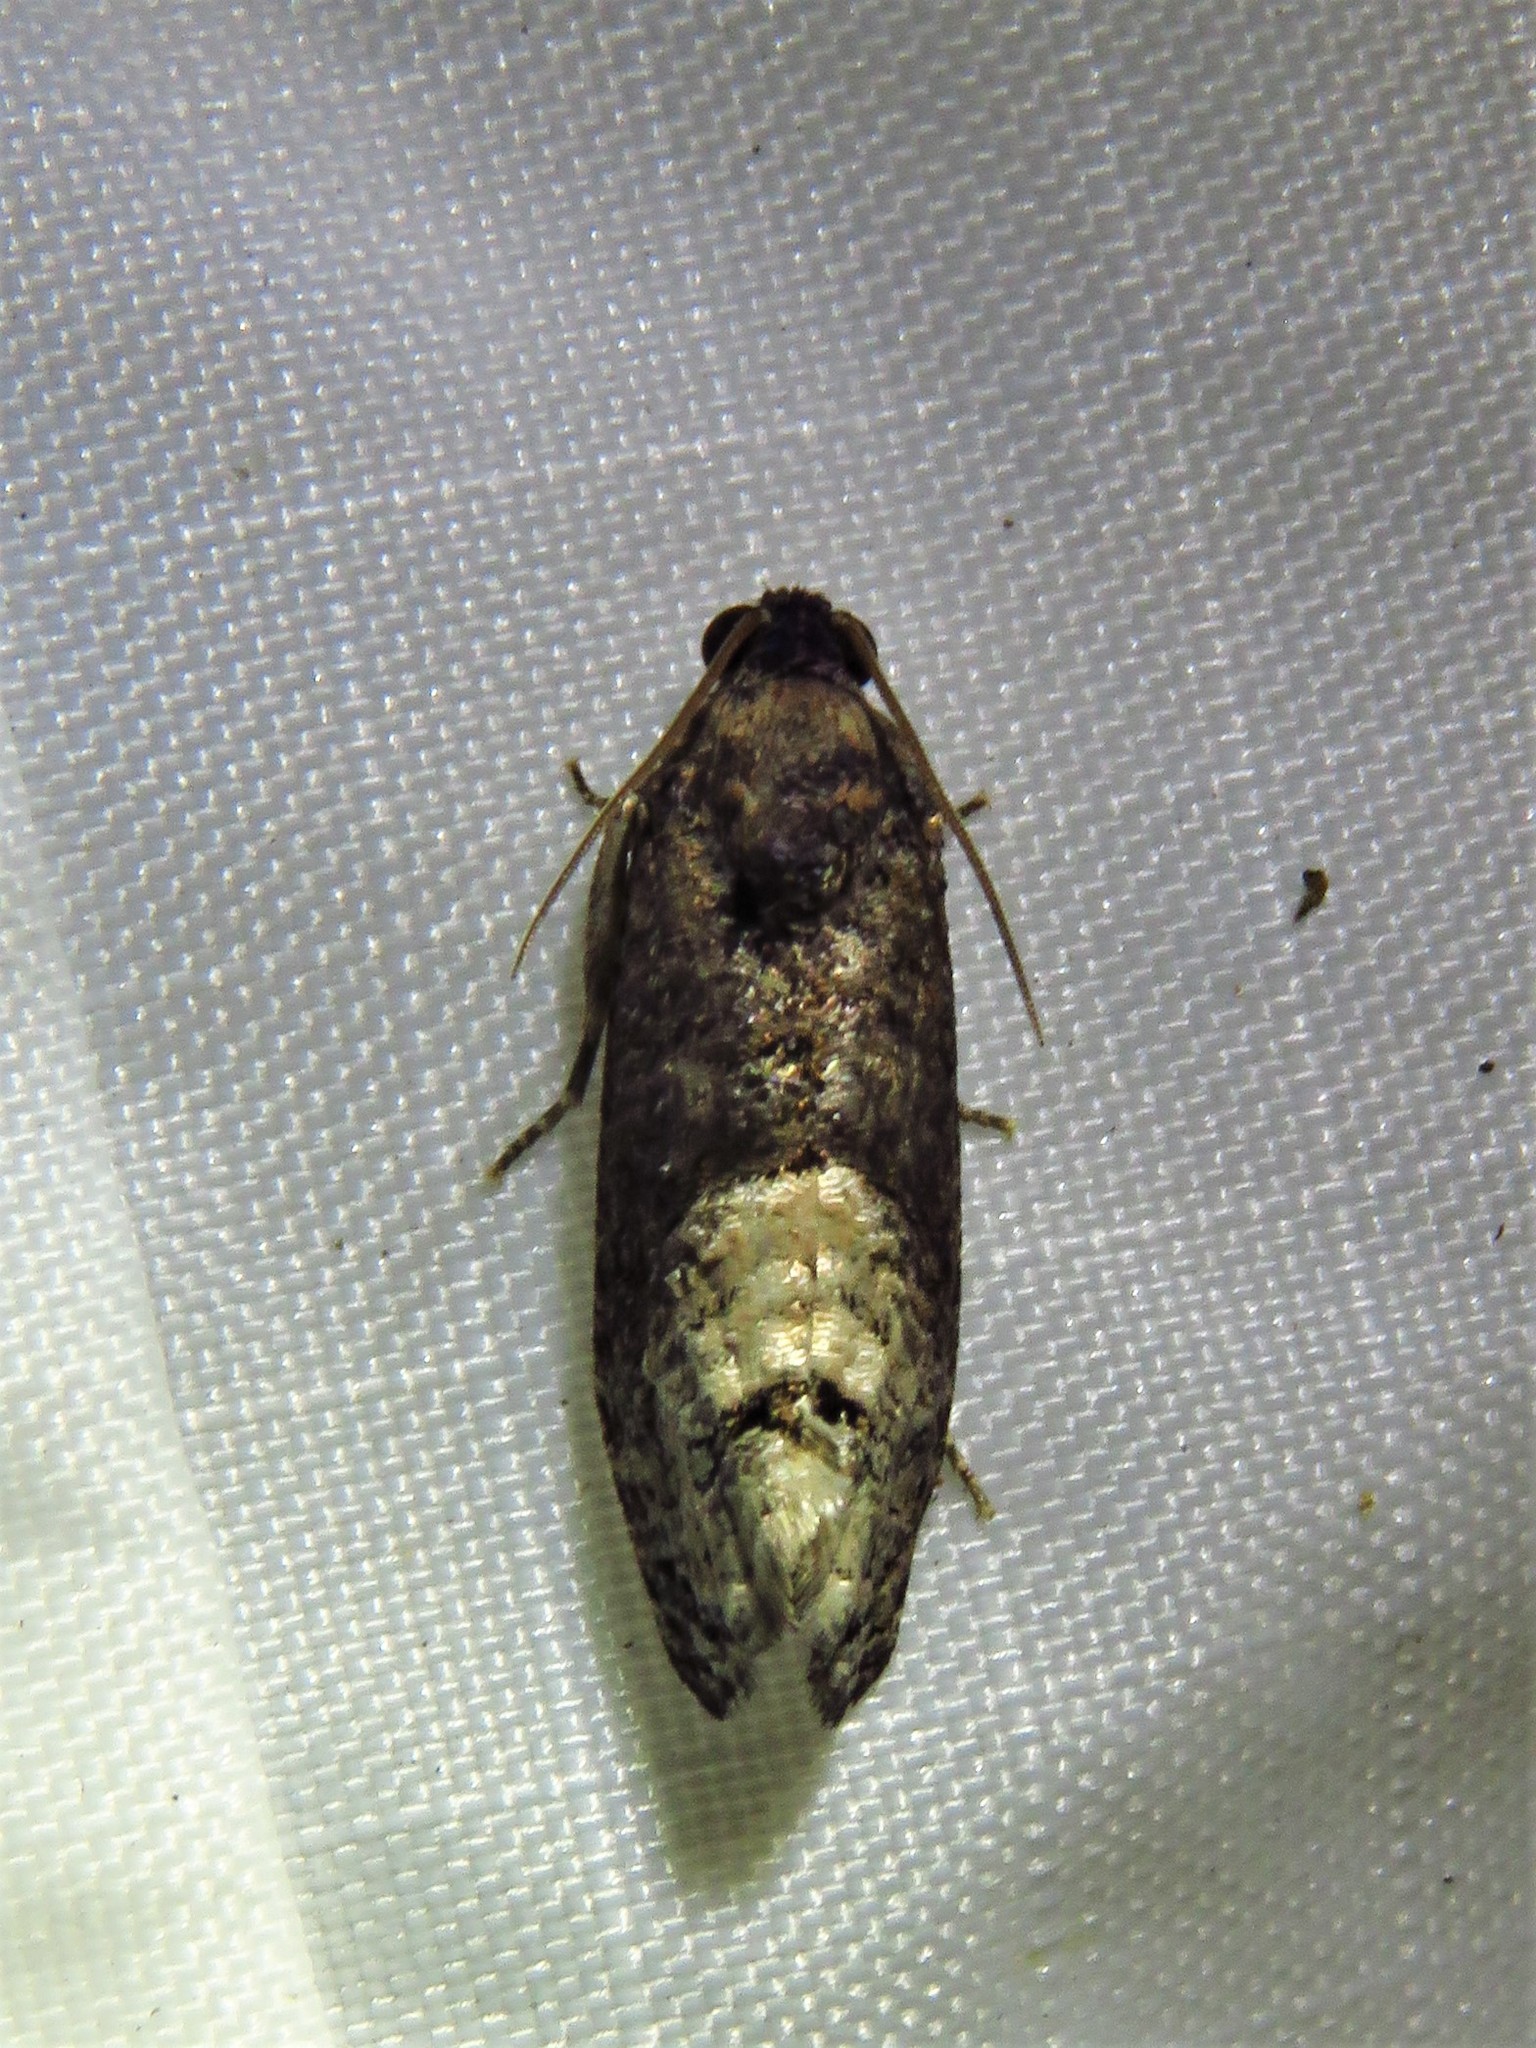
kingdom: Animalia
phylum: Arthropoda
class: Insecta
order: Lepidoptera
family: Tortricidae
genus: Ecdytolopha
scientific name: Ecdytolopha insiticiana
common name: Locust twig borer moth
